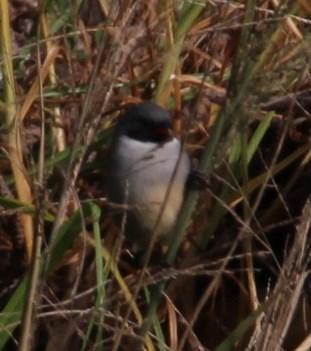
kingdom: Animalia
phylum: Chordata
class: Aves
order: Passeriformes
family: Estrildidae
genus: Coccopygia
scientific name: Coccopygia melanotis
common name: Swee waxbill
